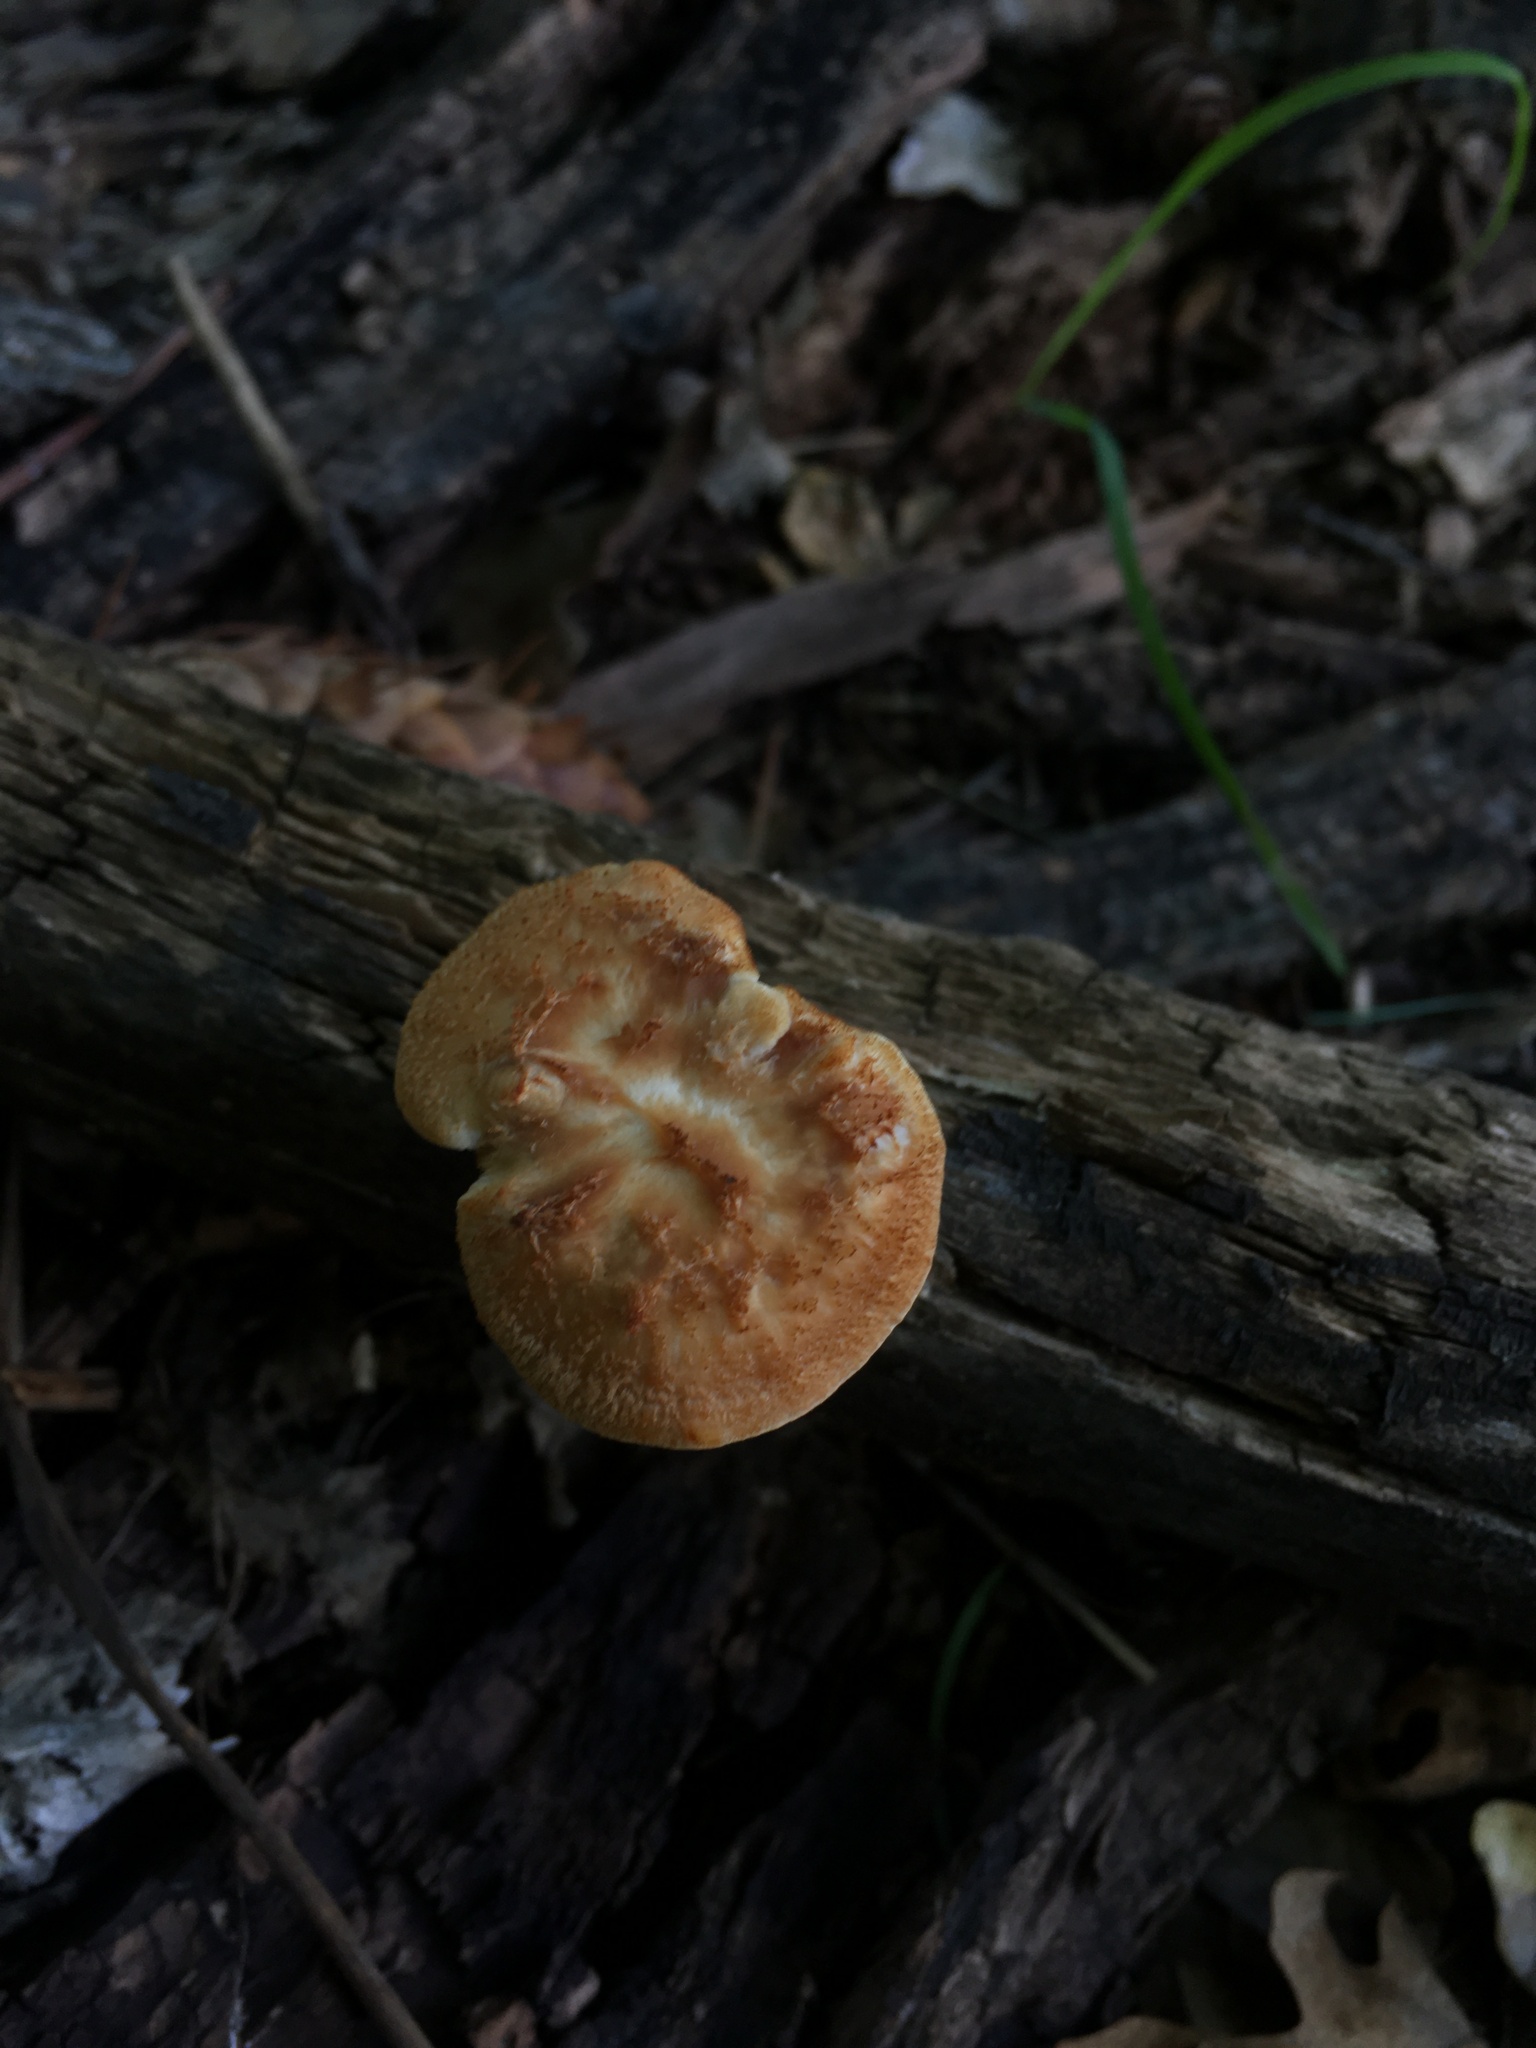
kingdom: Fungi
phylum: Basidiomycota
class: Agaricomycetes
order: Polyporales
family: Polyporaceae
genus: Polyporus
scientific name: Polyporus mcmurphyi
